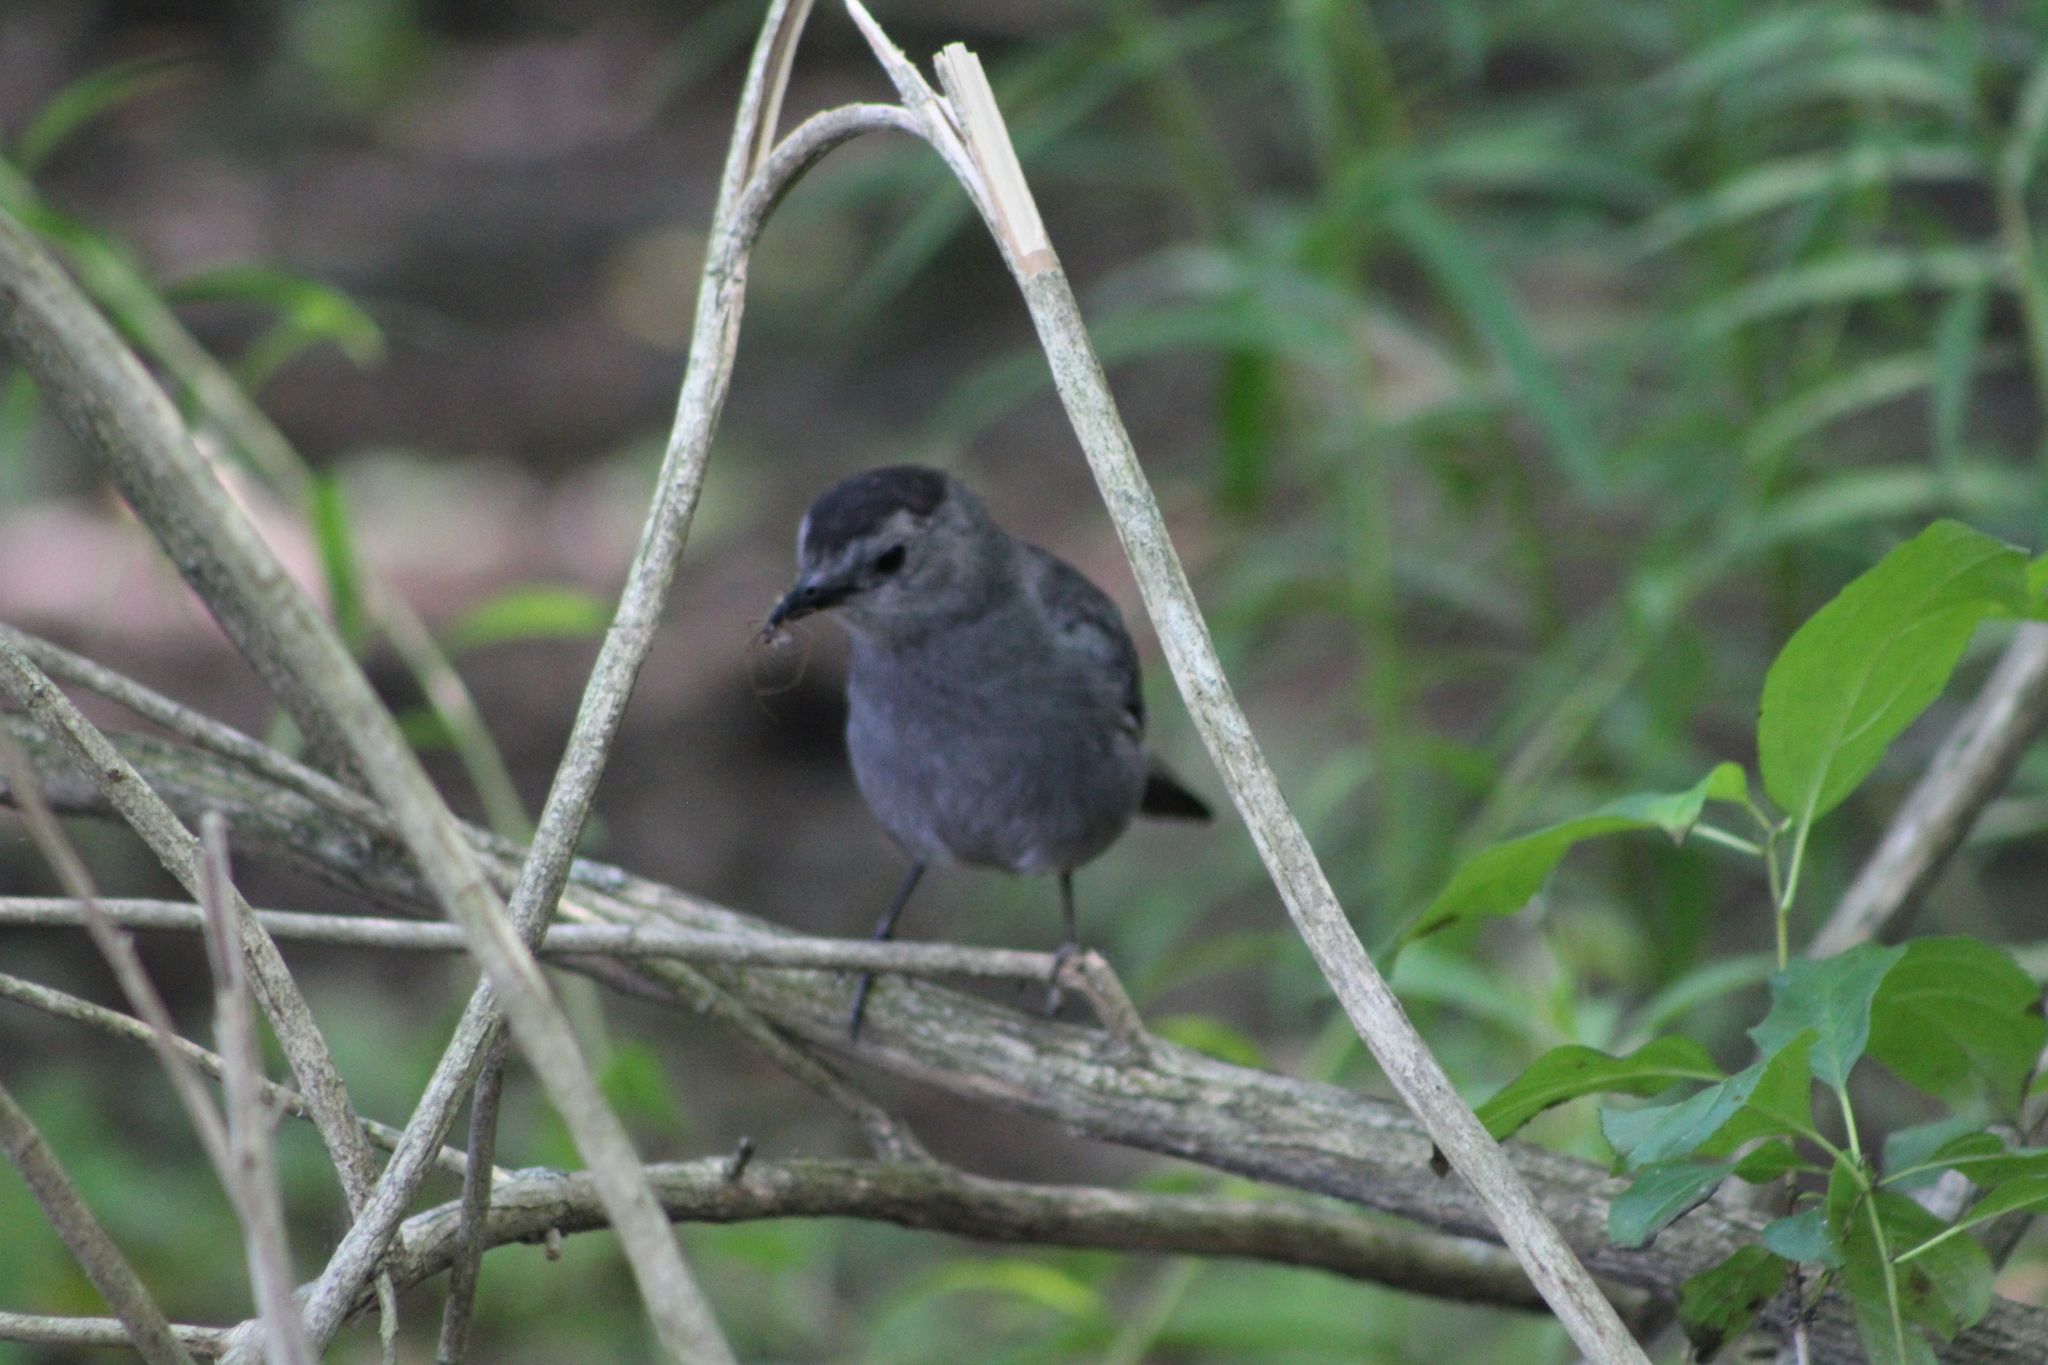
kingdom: Animalia
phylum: Chordata
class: Aves
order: Passeriformes
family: Mimidae
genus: Dumetella
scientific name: Dumetella carolinensis
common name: Gray catbird
